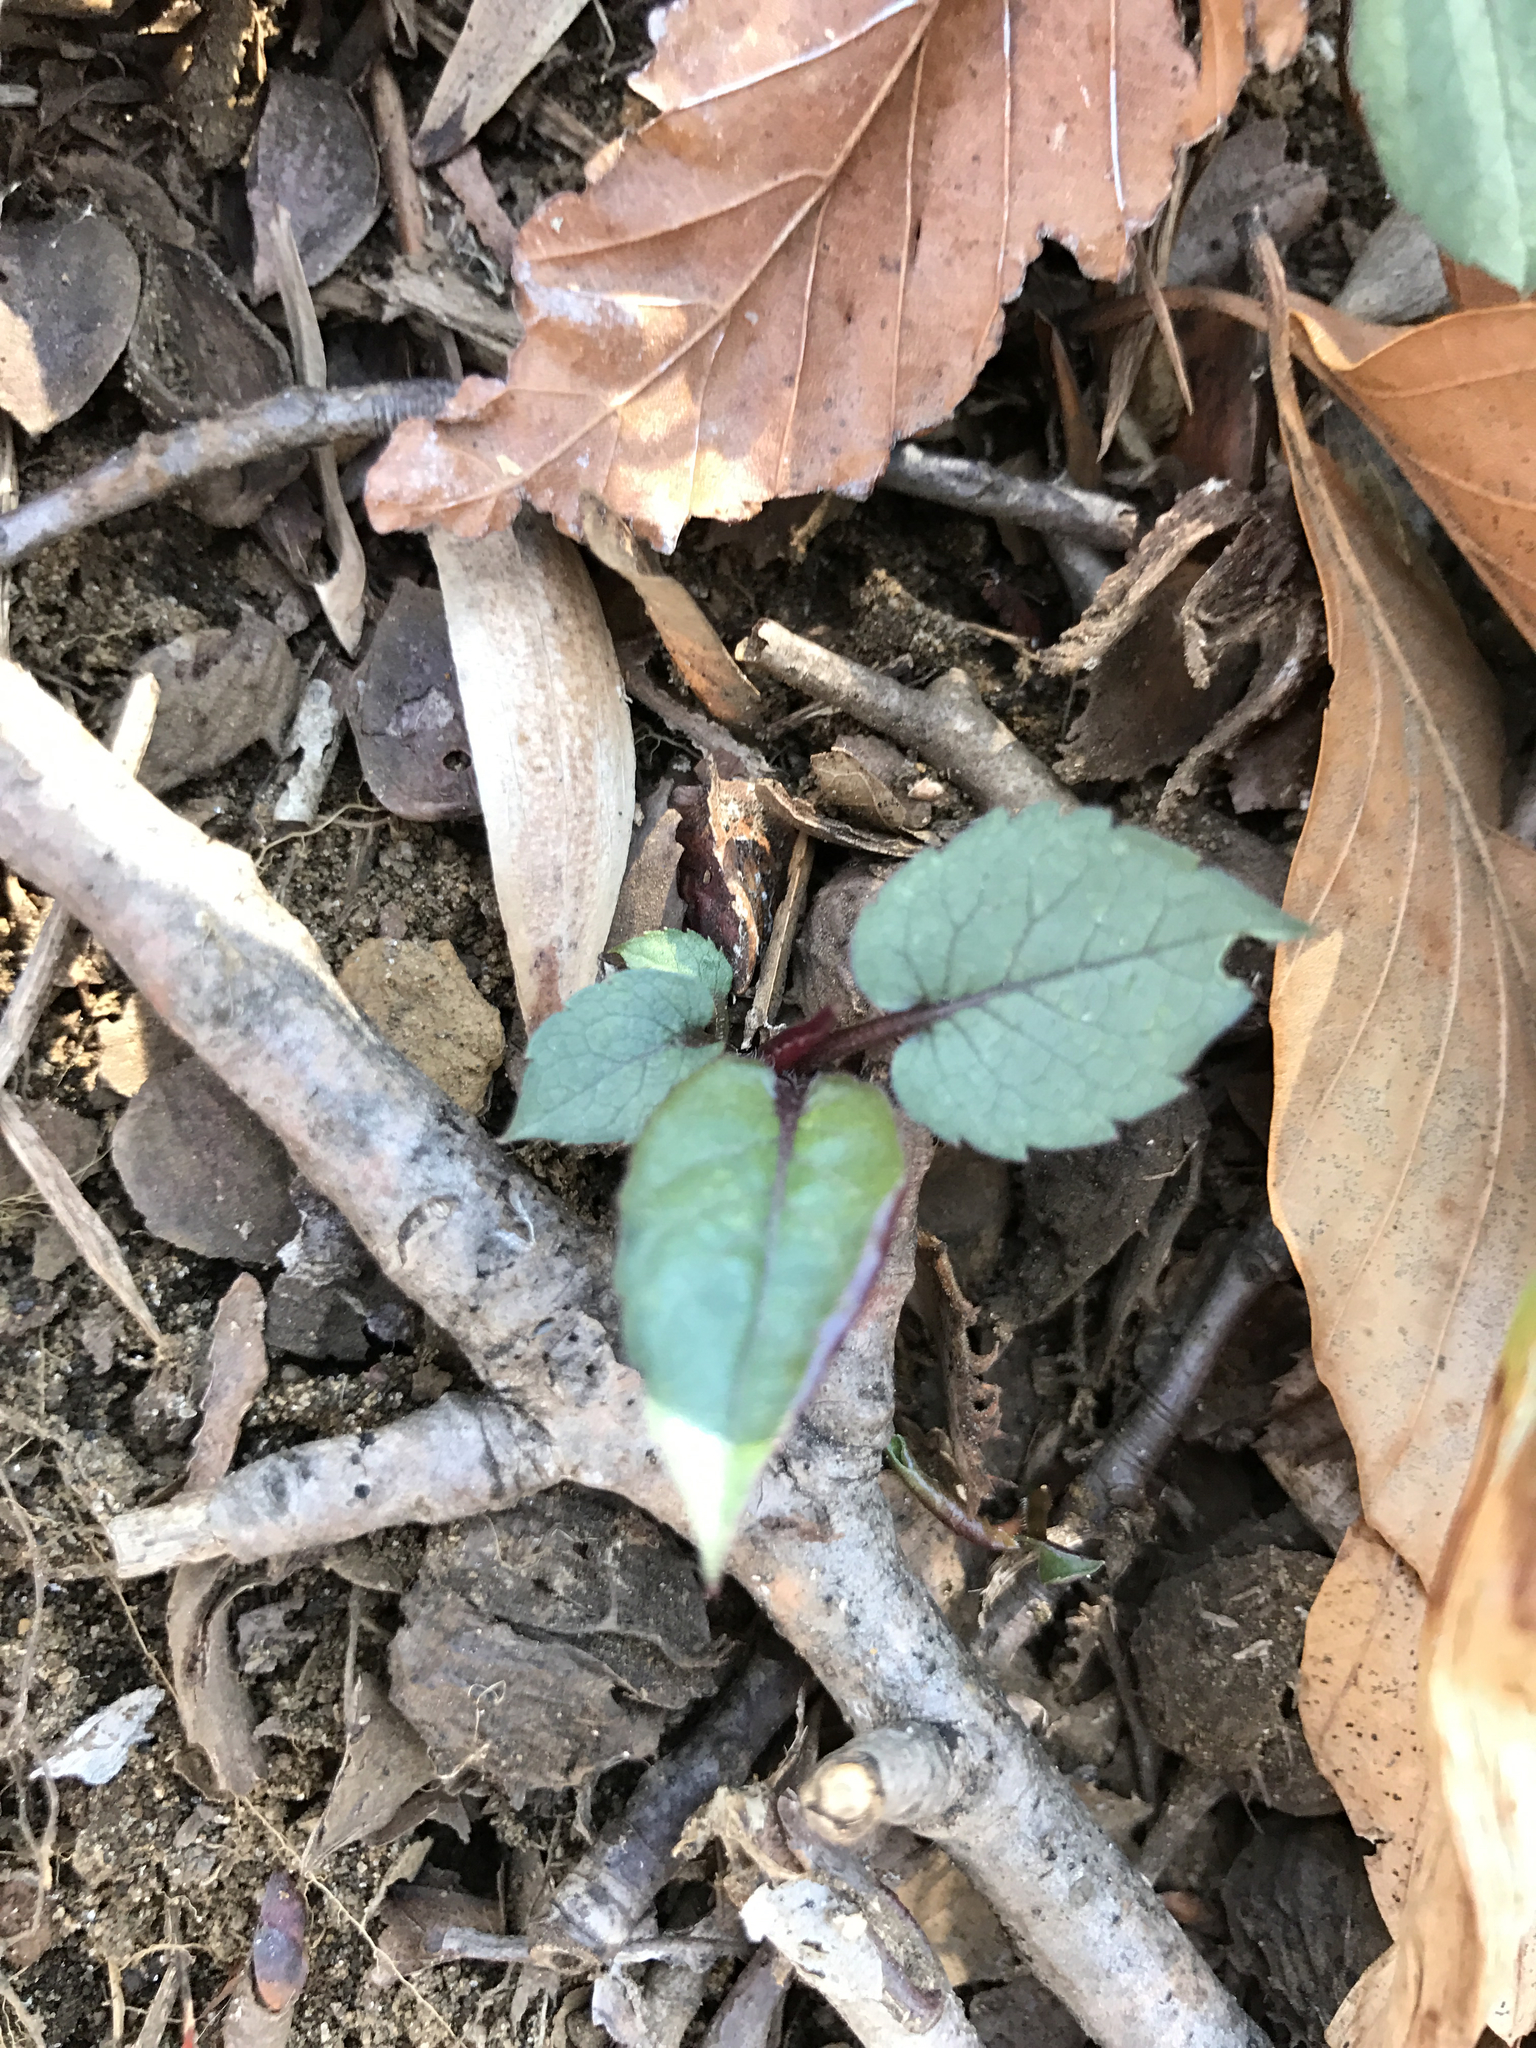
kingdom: Plantae
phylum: Tracheophyta
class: Magnoliopsida
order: Asterales
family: Asteraceae
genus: Symphyotrichum
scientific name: Symphyotrichum cordifolium
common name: Beeweed
